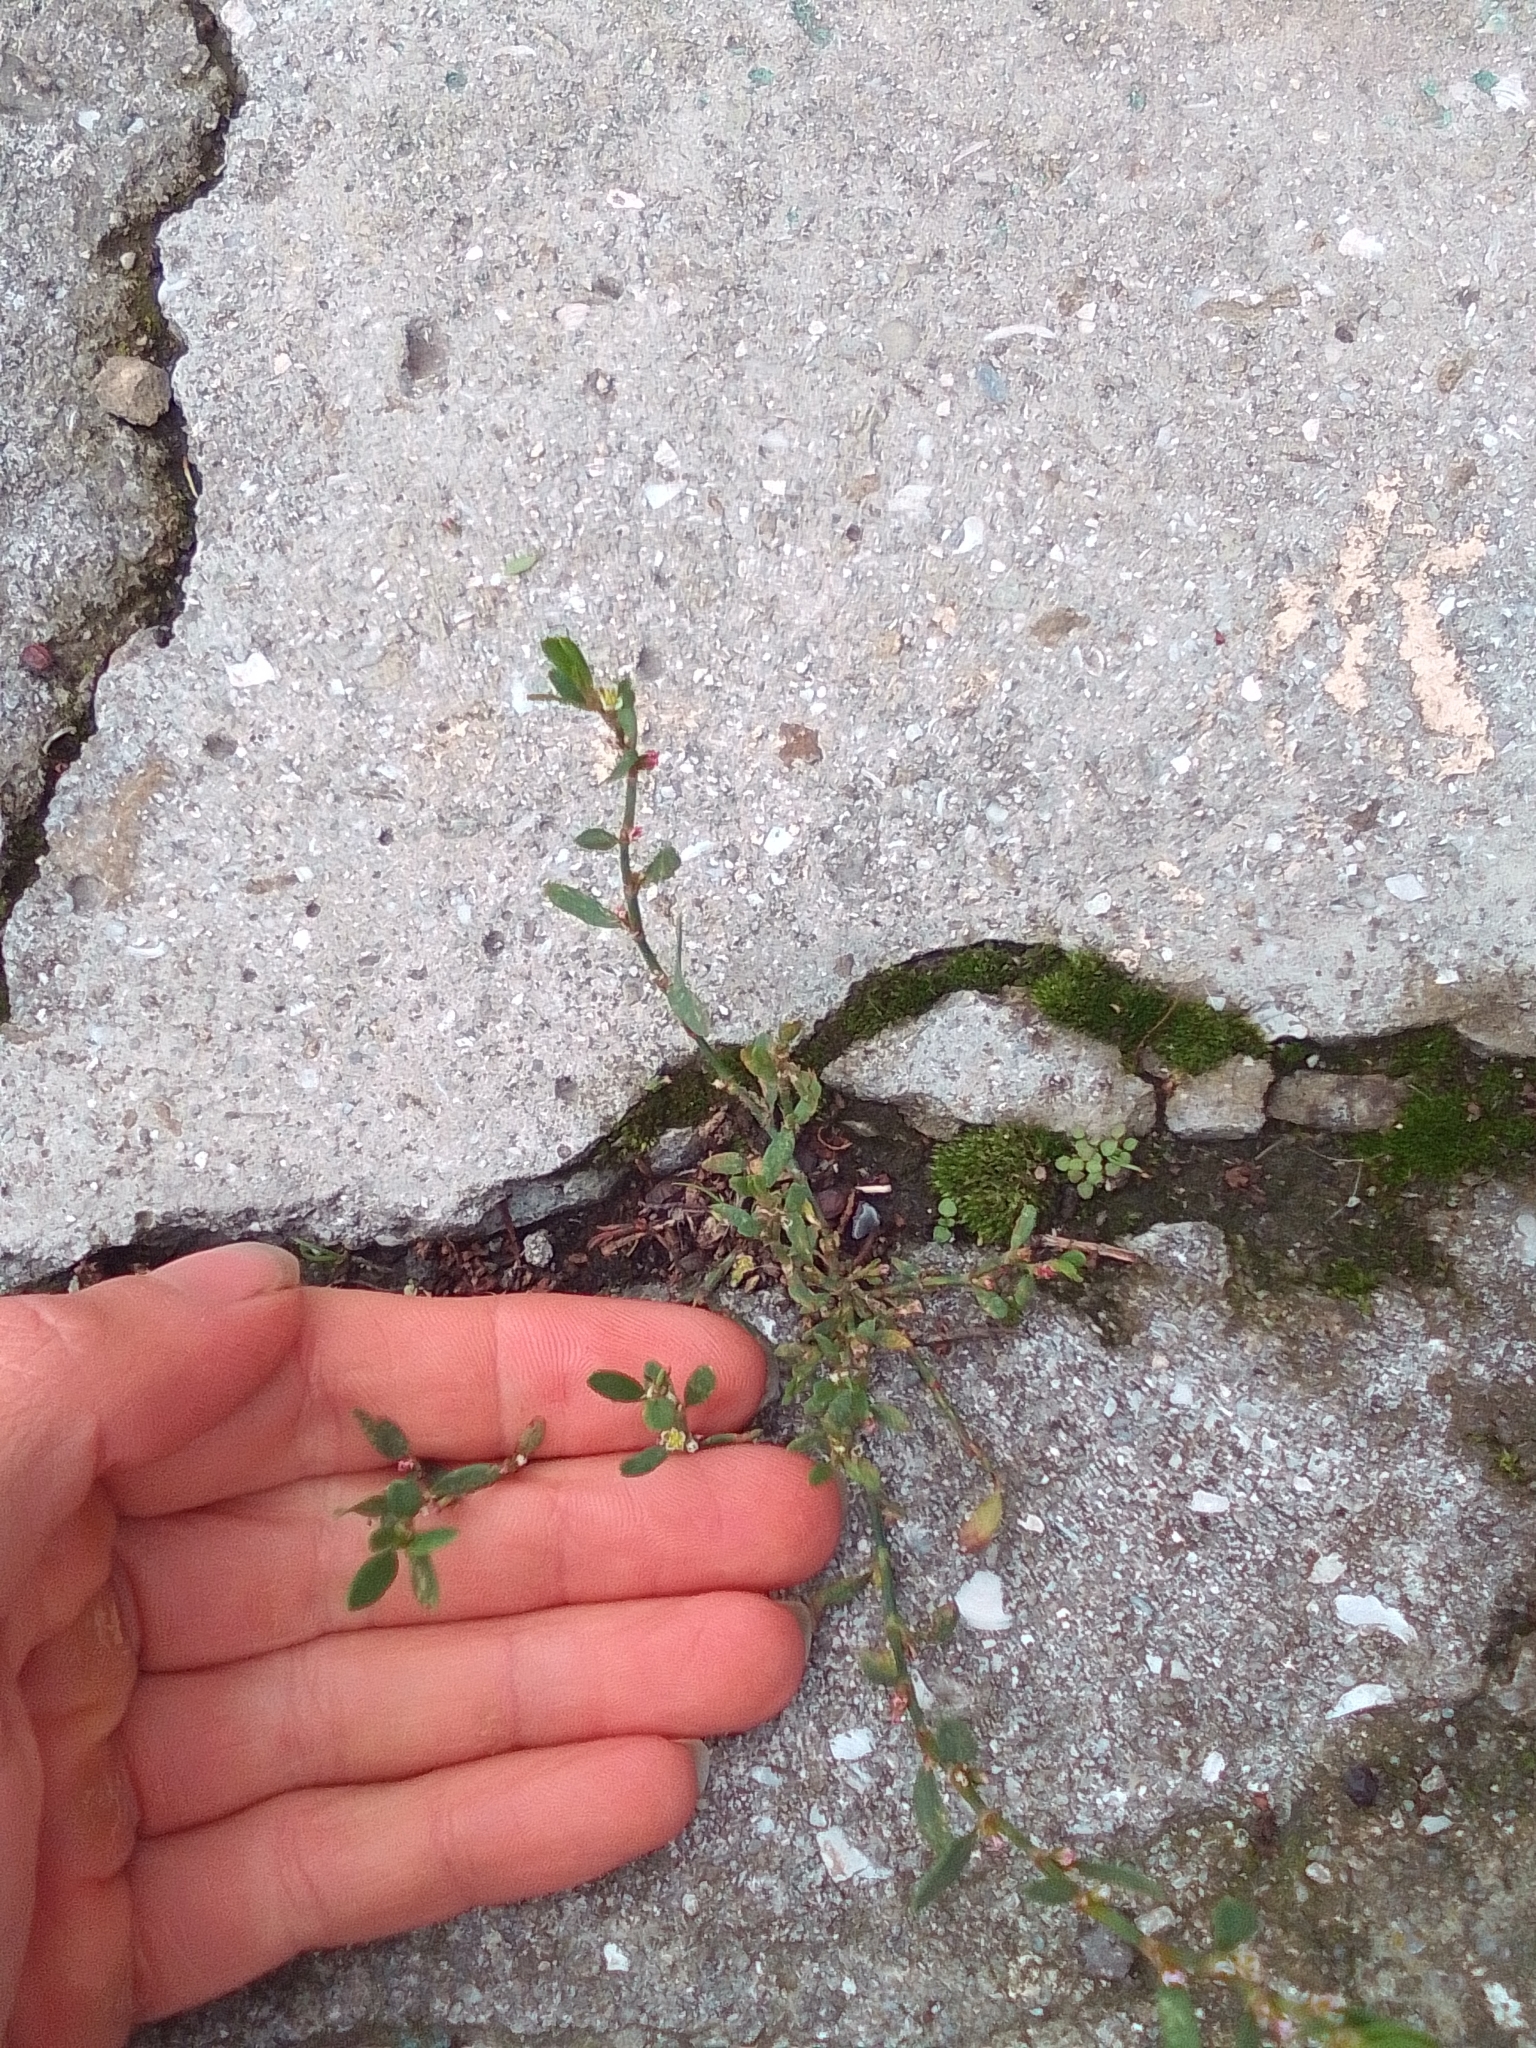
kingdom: Plantae
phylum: Tracheophyta
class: Magnoliopsida
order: Caryophyllales
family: Polygonaceae
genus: Polygonum
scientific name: Polygonum aviculare
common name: Prostrate knotweed
